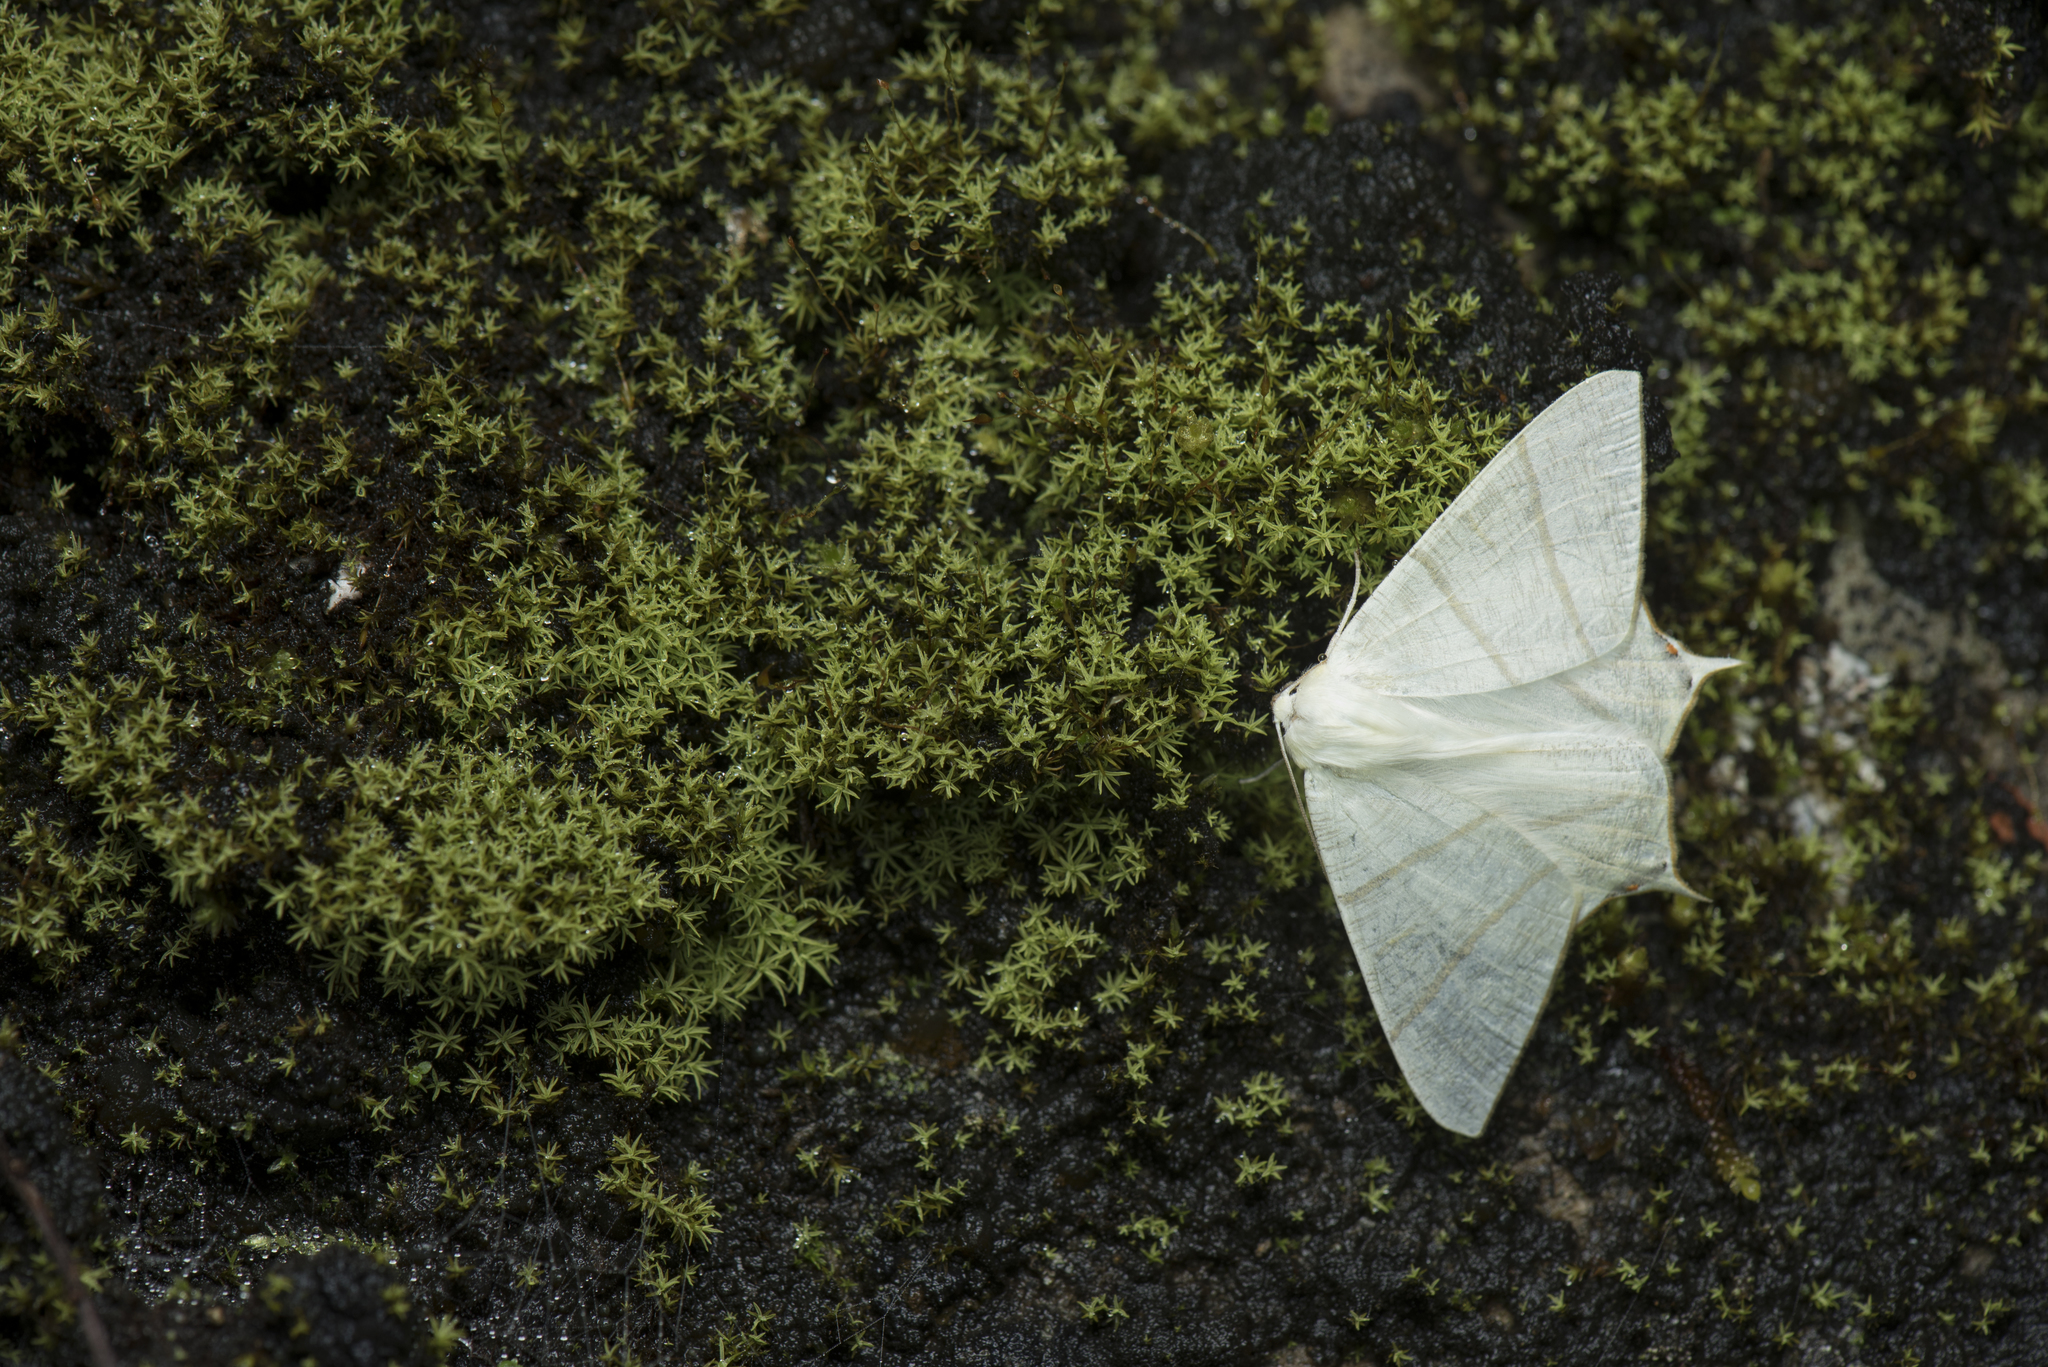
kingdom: Animalia
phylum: Arthropoda
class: Insecta
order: Lepidoptera
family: Geometridae
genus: Ourapteryx
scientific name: Ourapteryx pallidula
